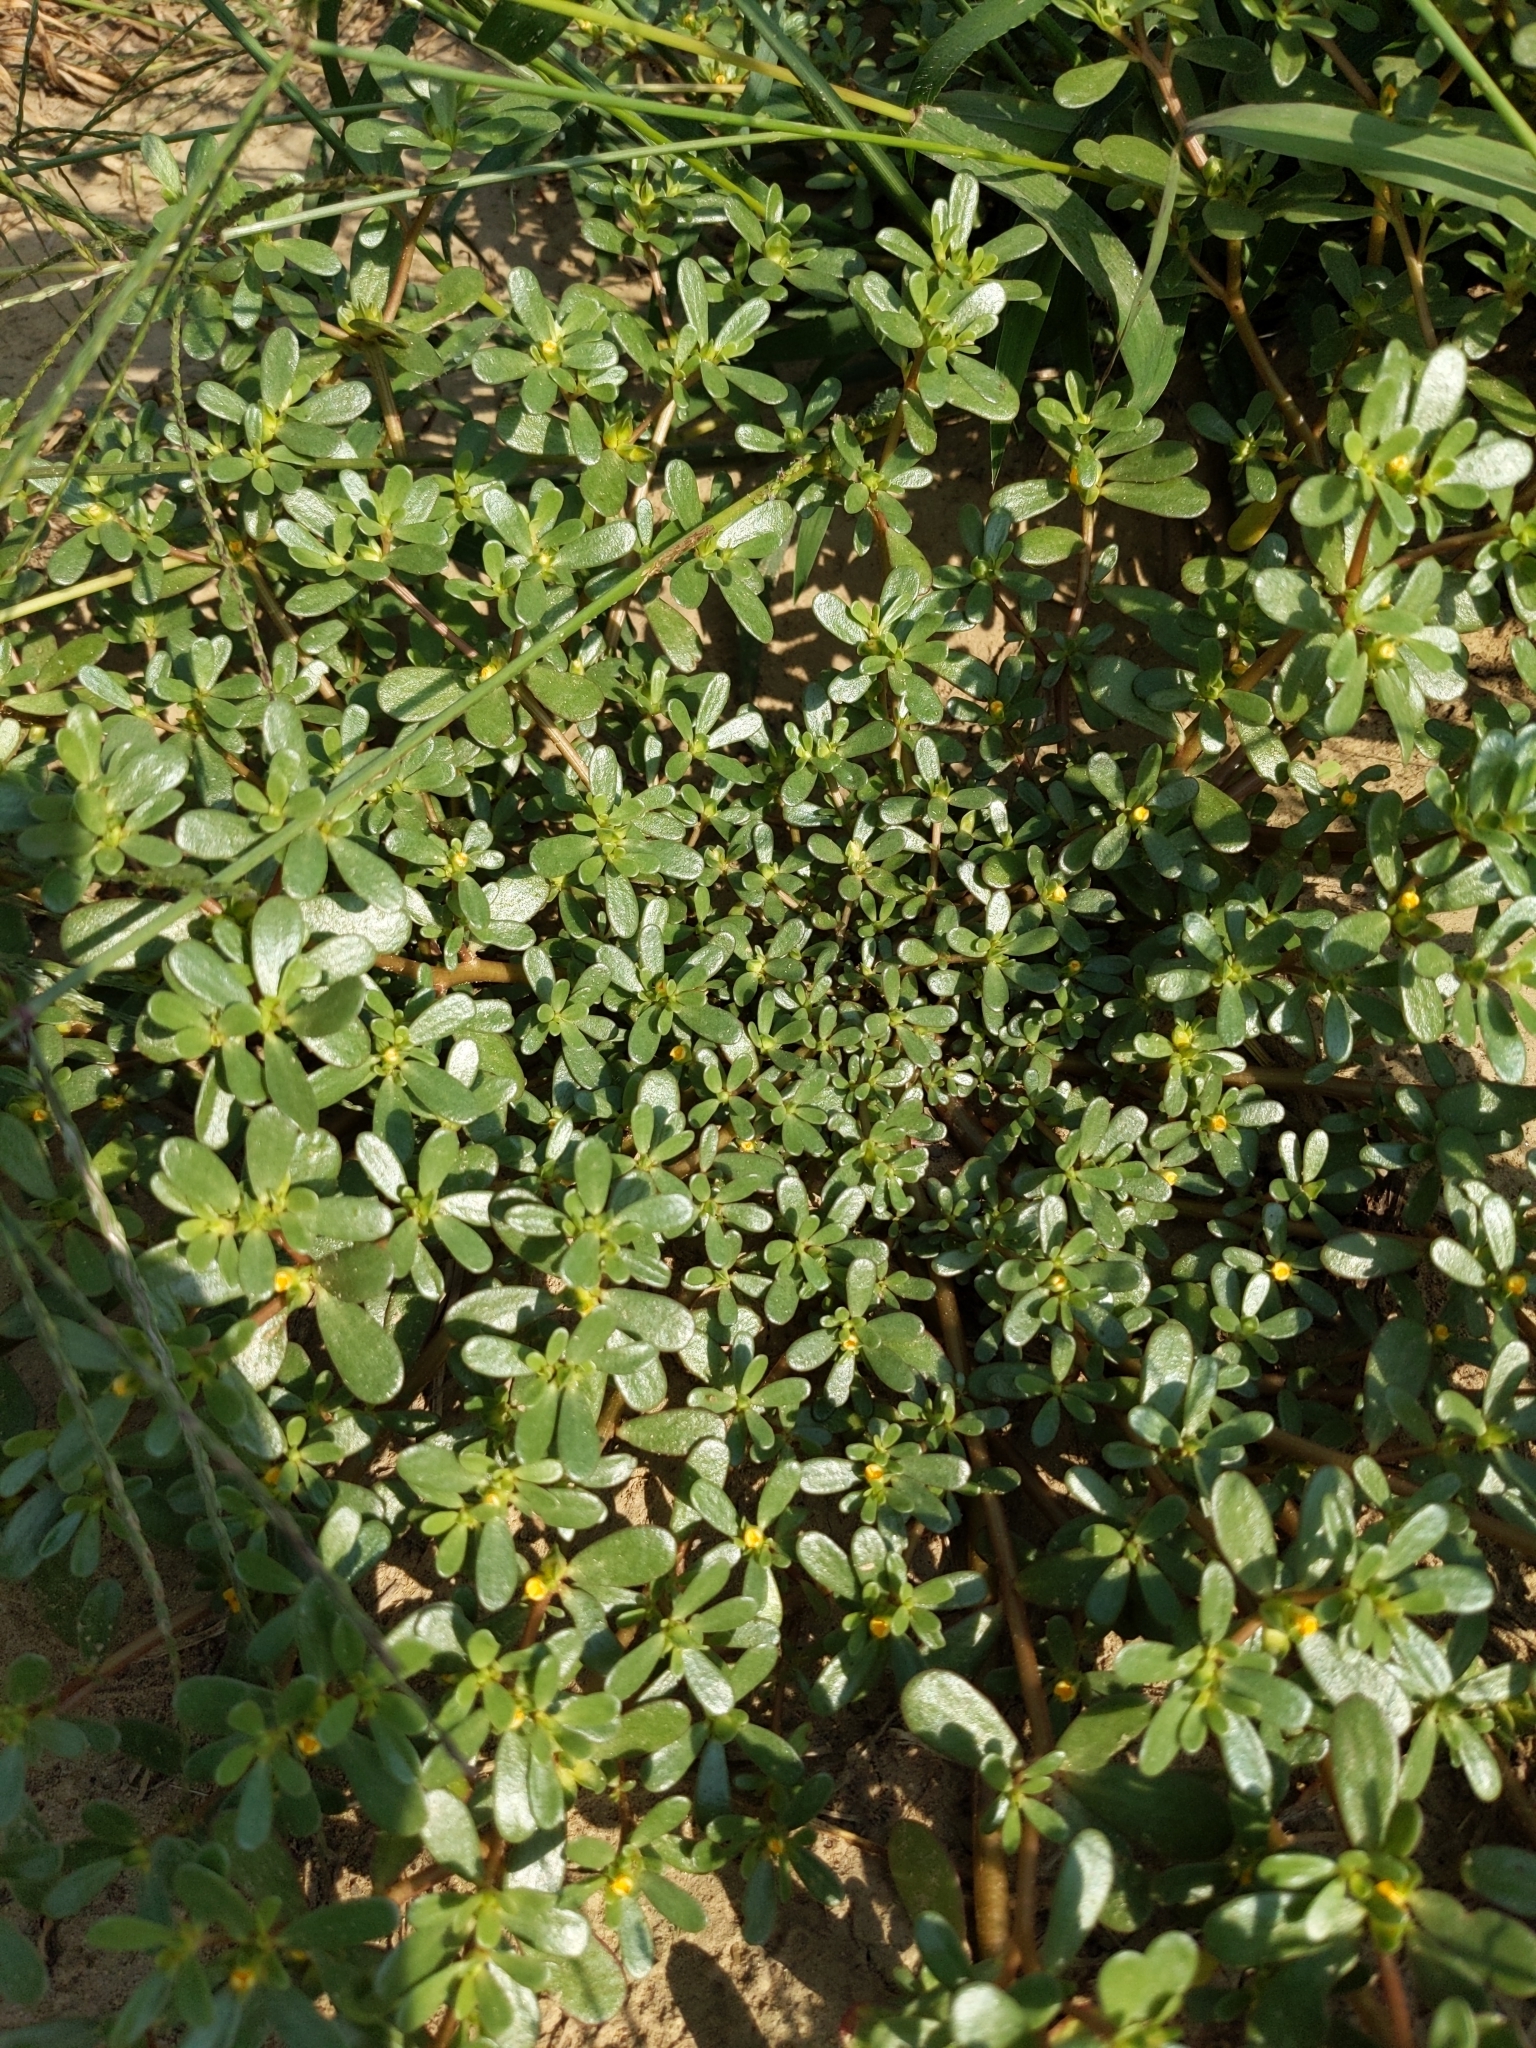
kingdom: Plantae
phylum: Tracheophyta
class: Magnoliopsida
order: Caryophyllales
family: Portulacaceae
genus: Portulaca
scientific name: Portulaca oleracea
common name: Common purslane
